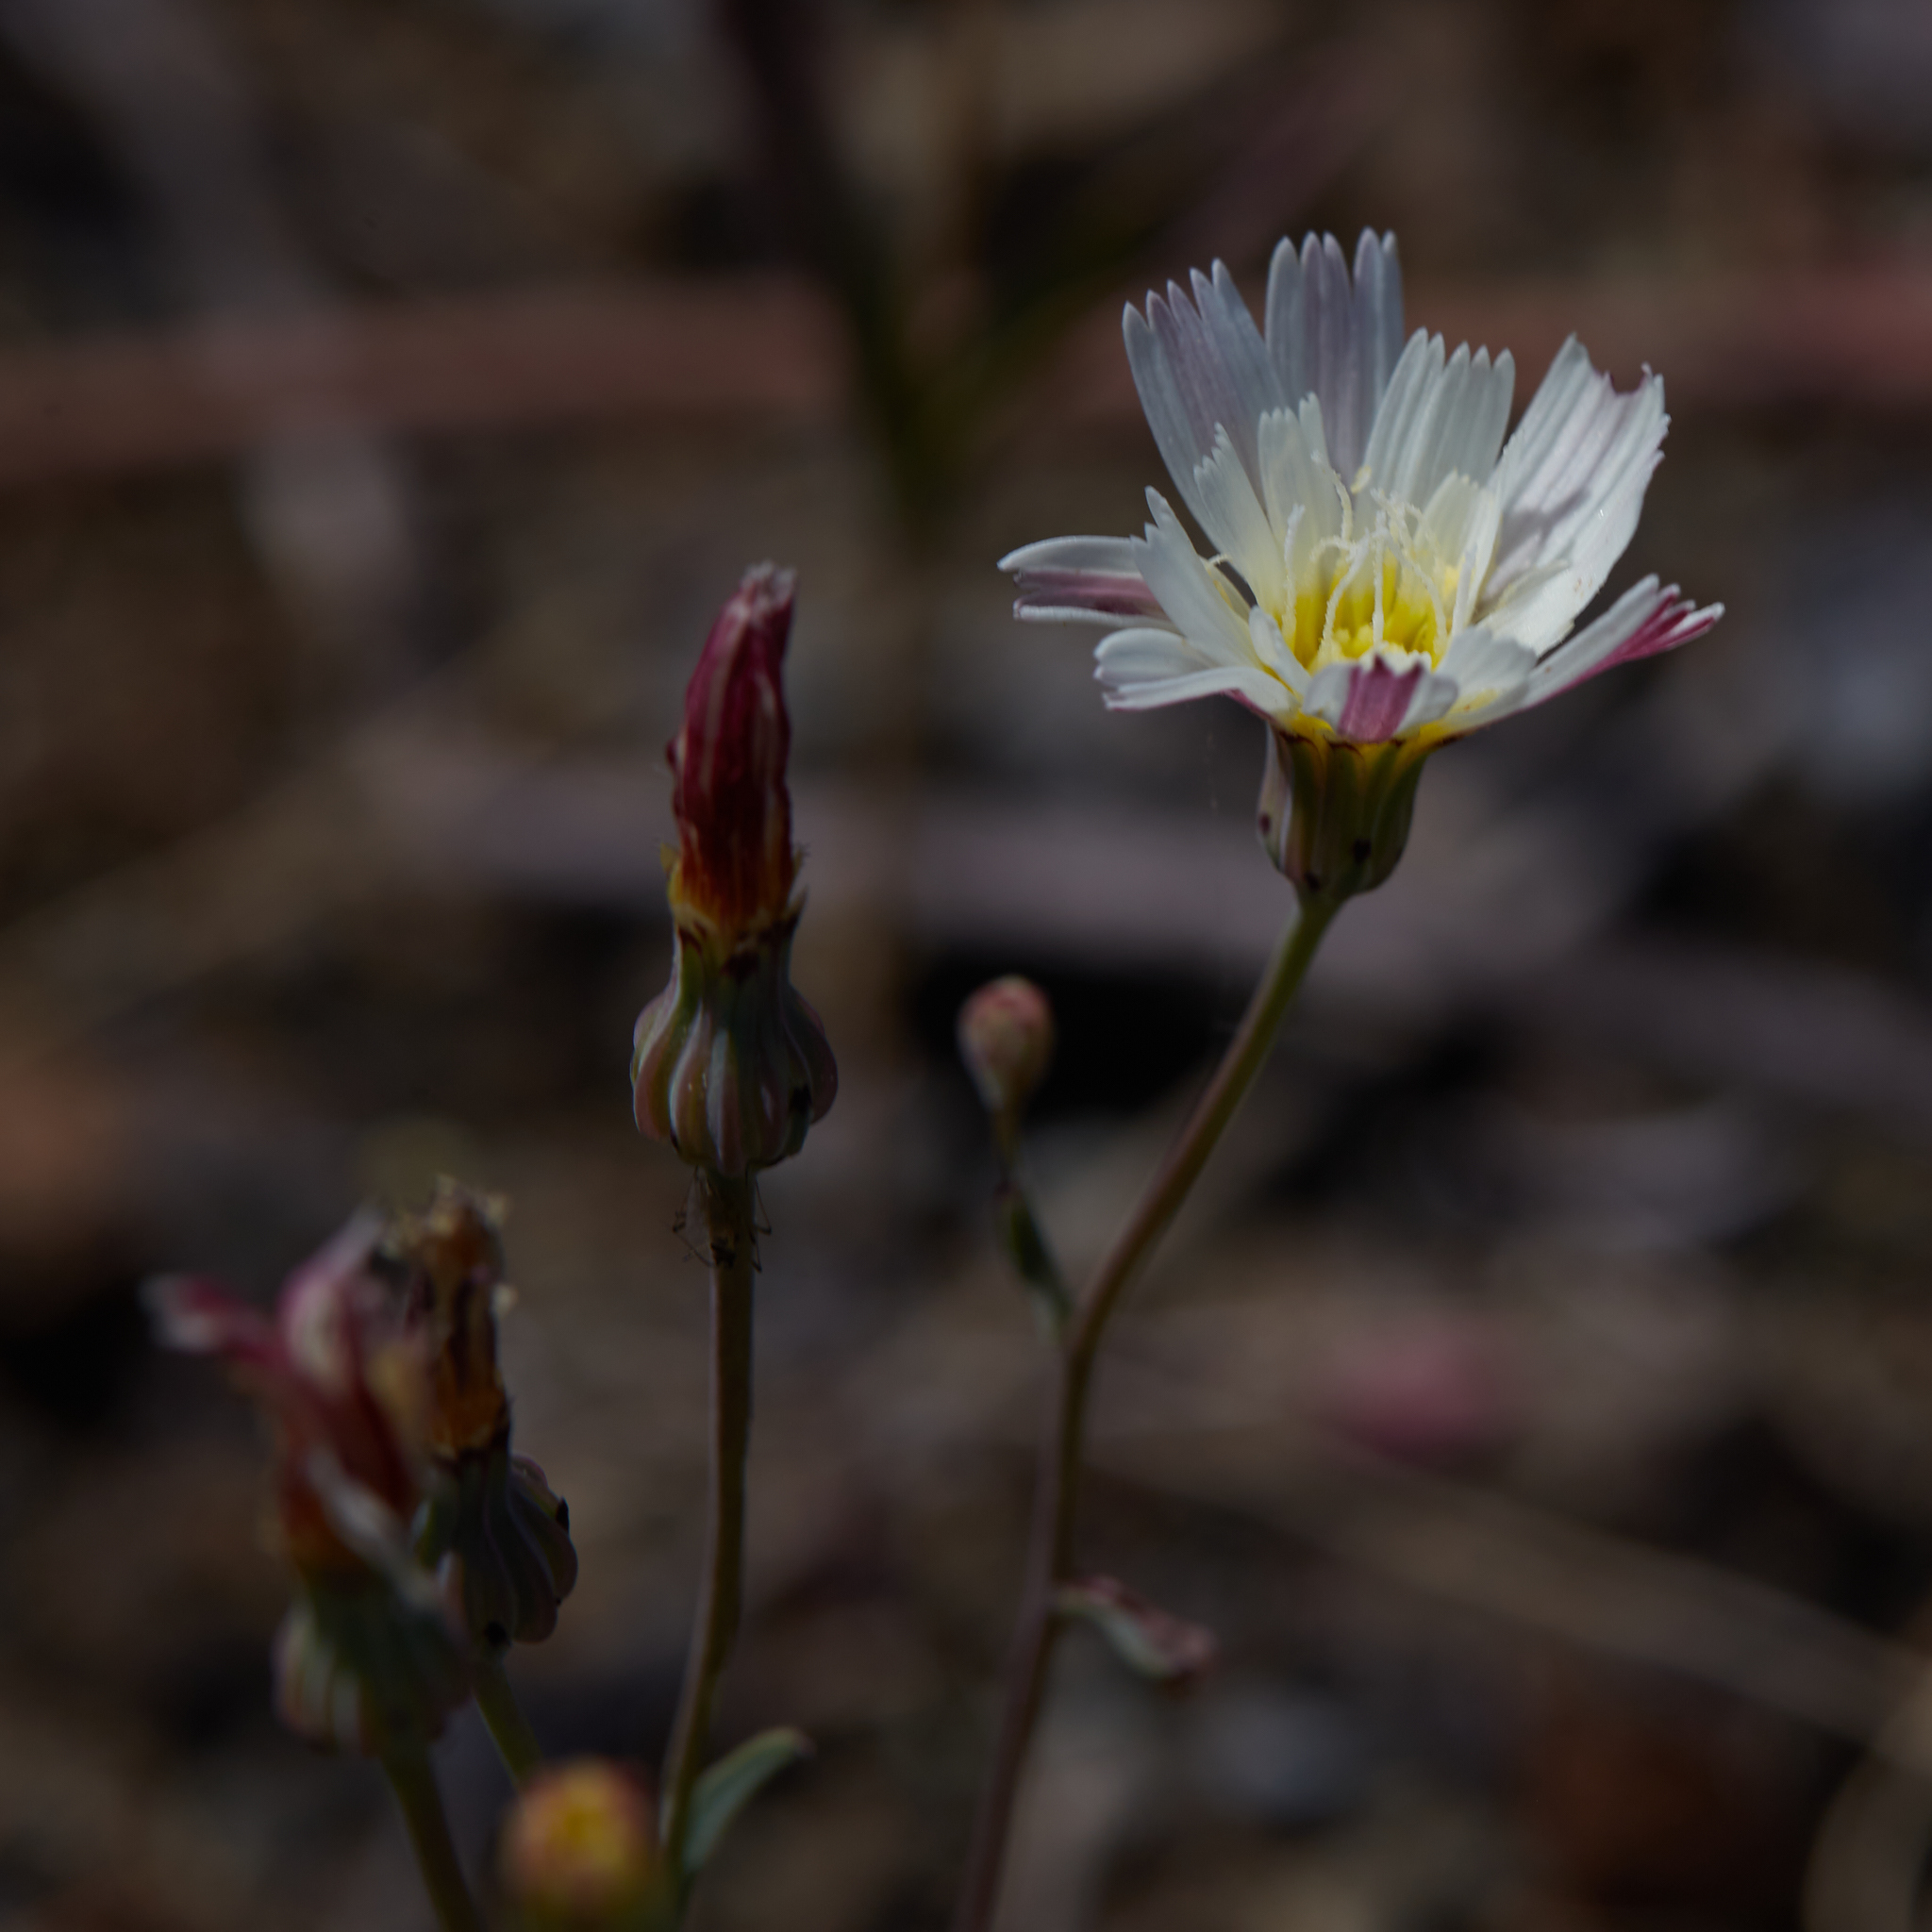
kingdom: Plantae
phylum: Tracheophyta
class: Magnoliopsida
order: Asterales
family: Asteraceae
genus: Malacothrix
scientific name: Malacothrix floccifera
